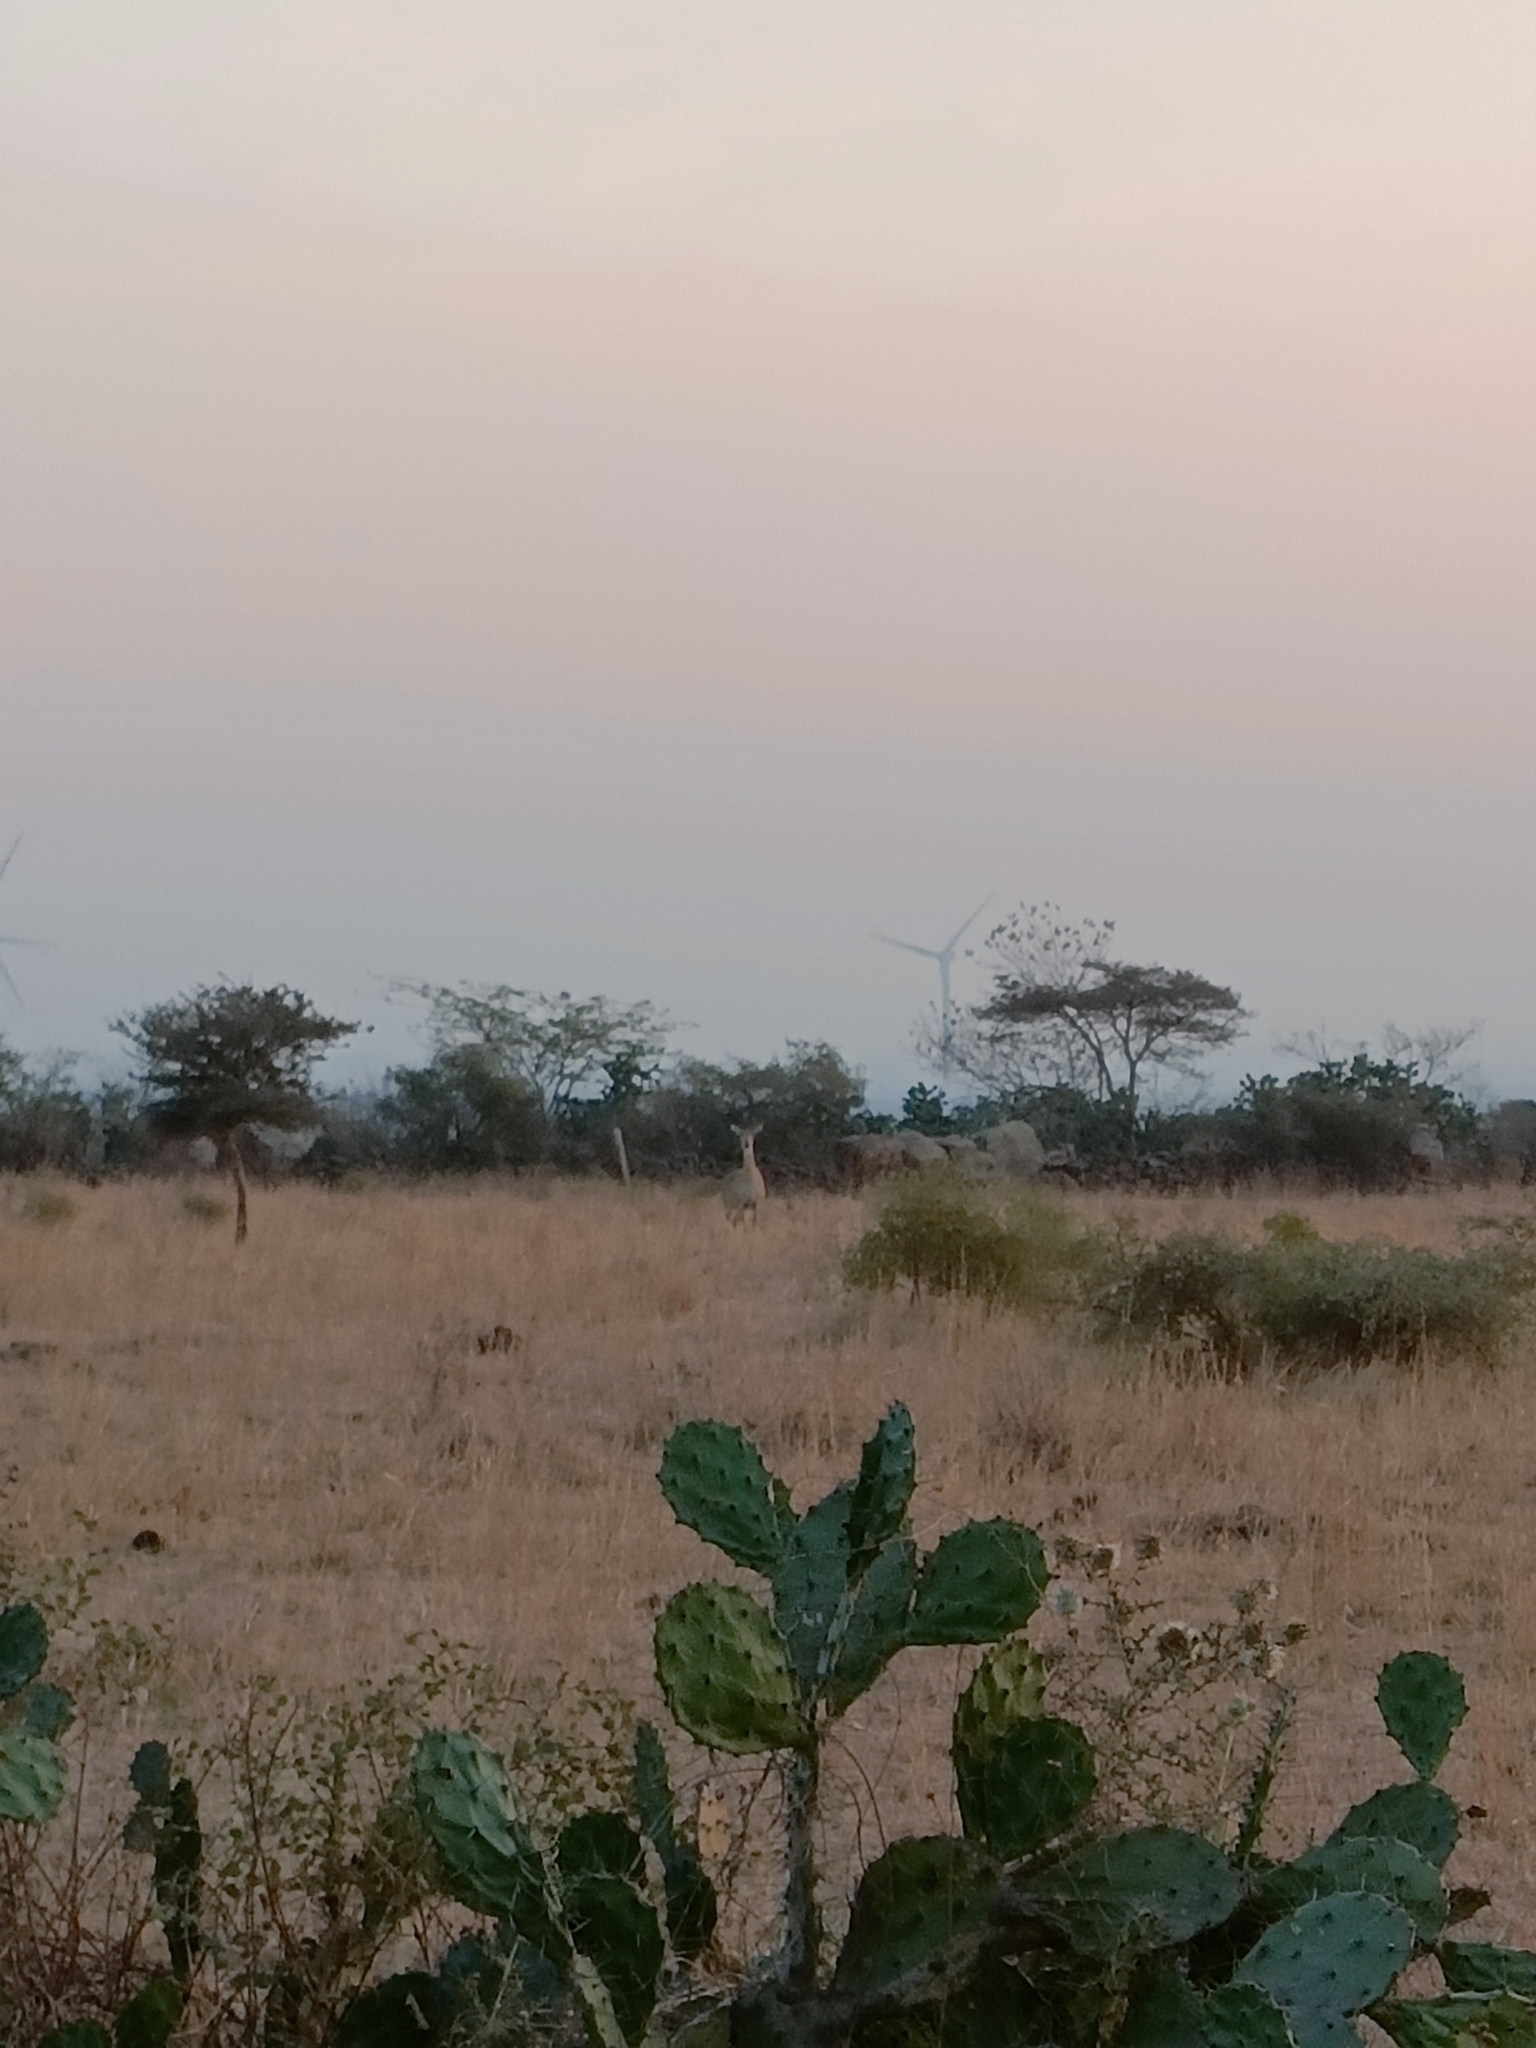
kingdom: Animalia
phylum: Chordata
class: Mammalia
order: Artiodactyla
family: Bovidae
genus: Boselaphus
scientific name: Boselaphus tragocamelus
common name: Nilgai
